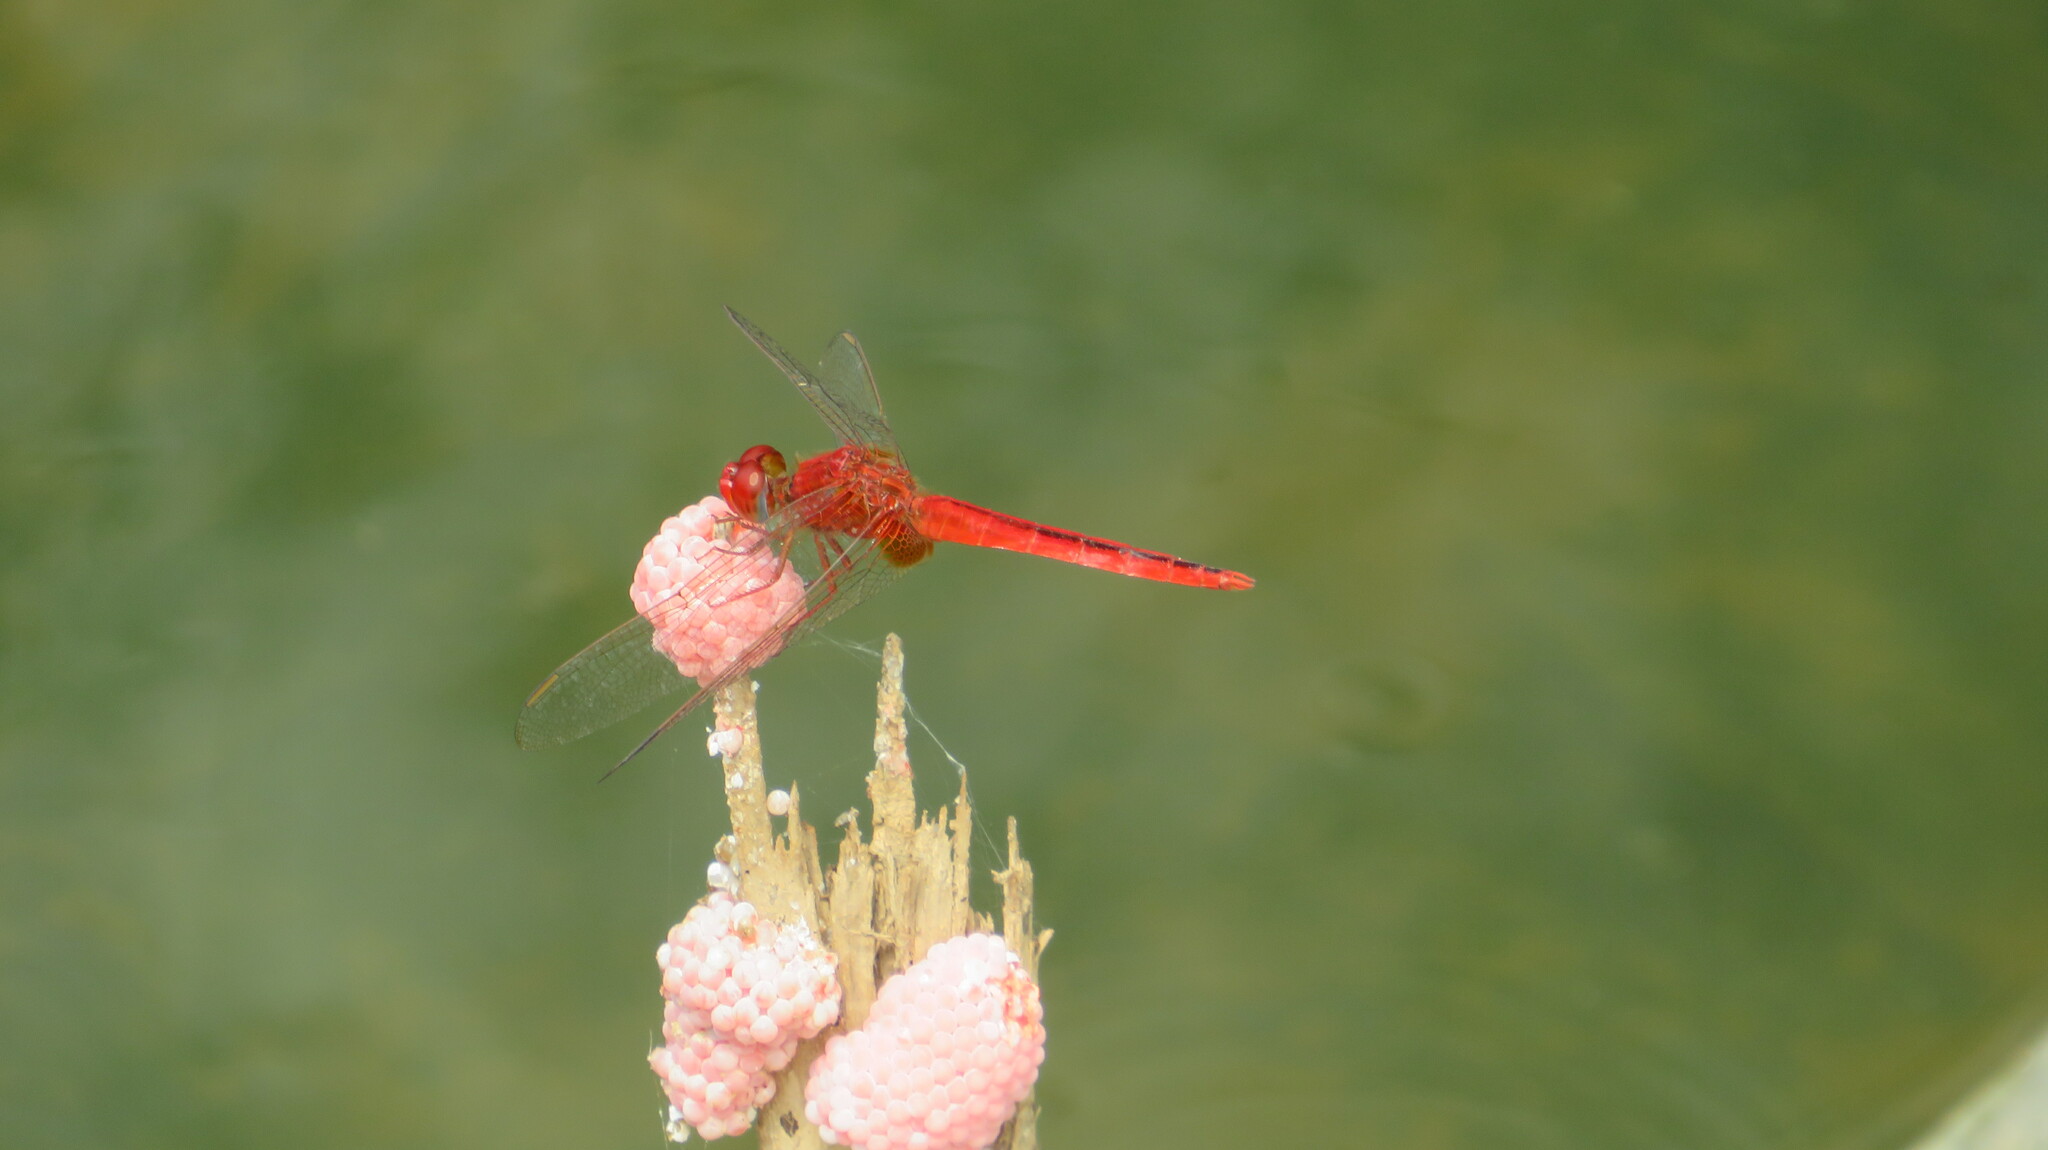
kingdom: Animalia
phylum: Arthropoda
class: Insecta
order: Odonata
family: Libellulidae
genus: Crocothemis
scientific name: Crocothemis servilia
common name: Scarlet skimmer
